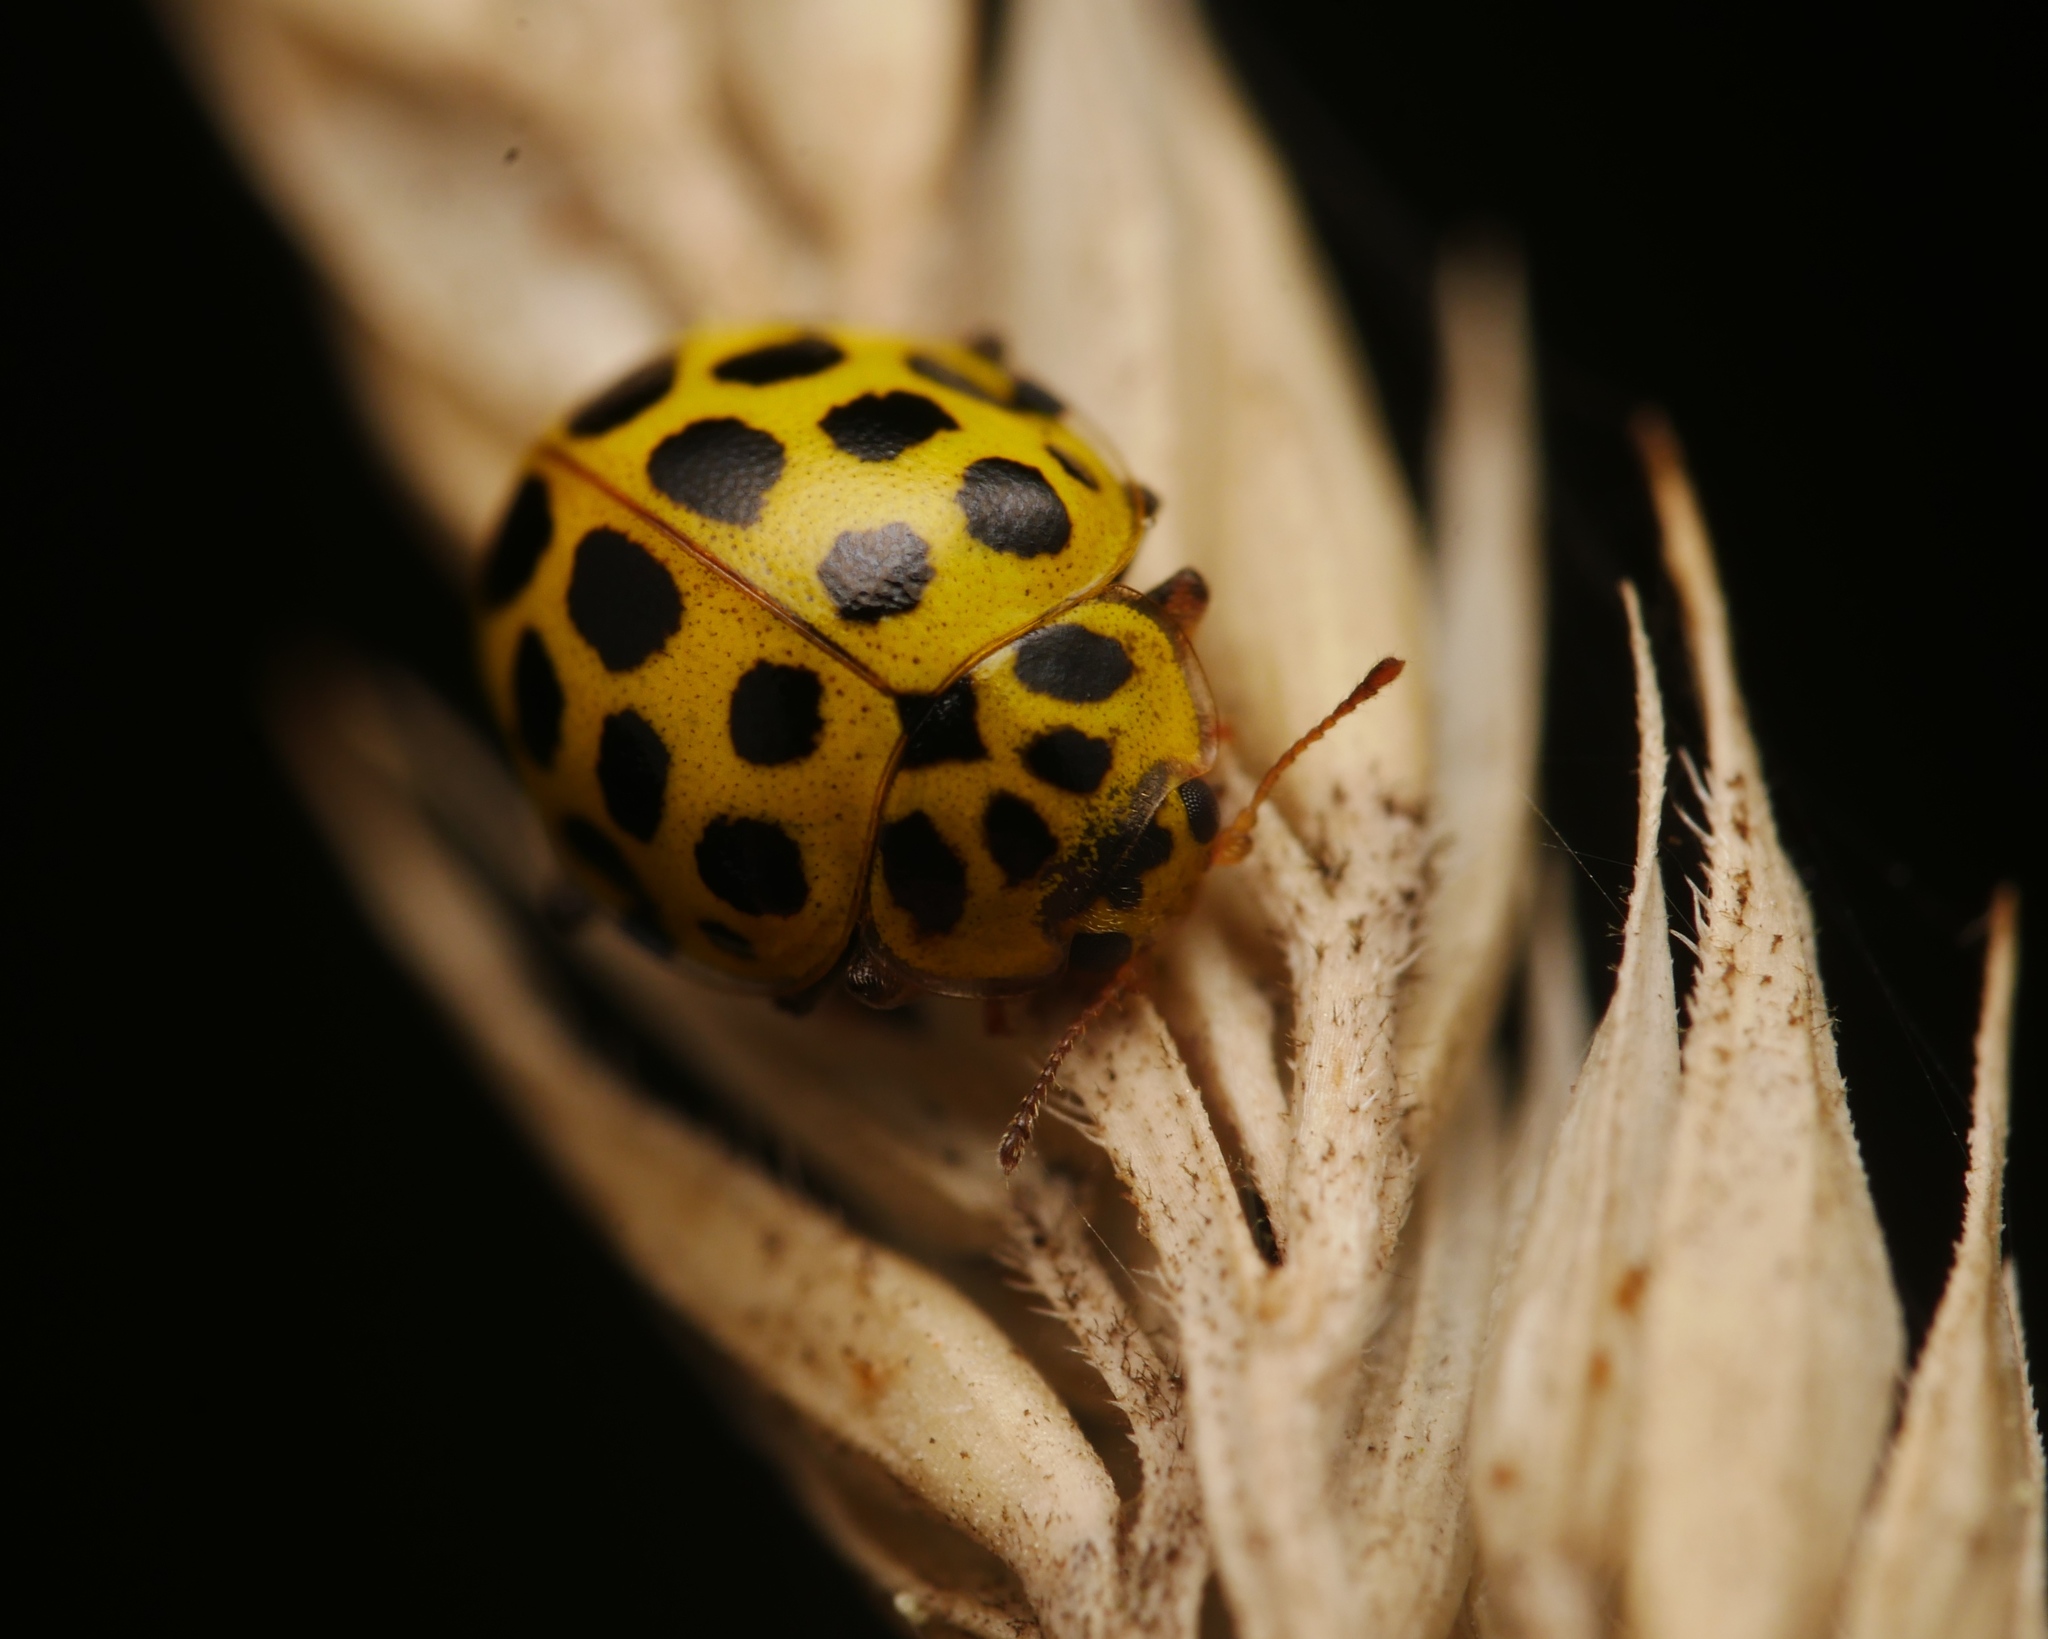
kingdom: Animalia
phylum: Arthropoda
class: Insecta
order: Coleoptera
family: Coccinellidae
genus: Psyllobora
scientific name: Psyllobora vigintiduopunctata
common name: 22-spot ladybird
